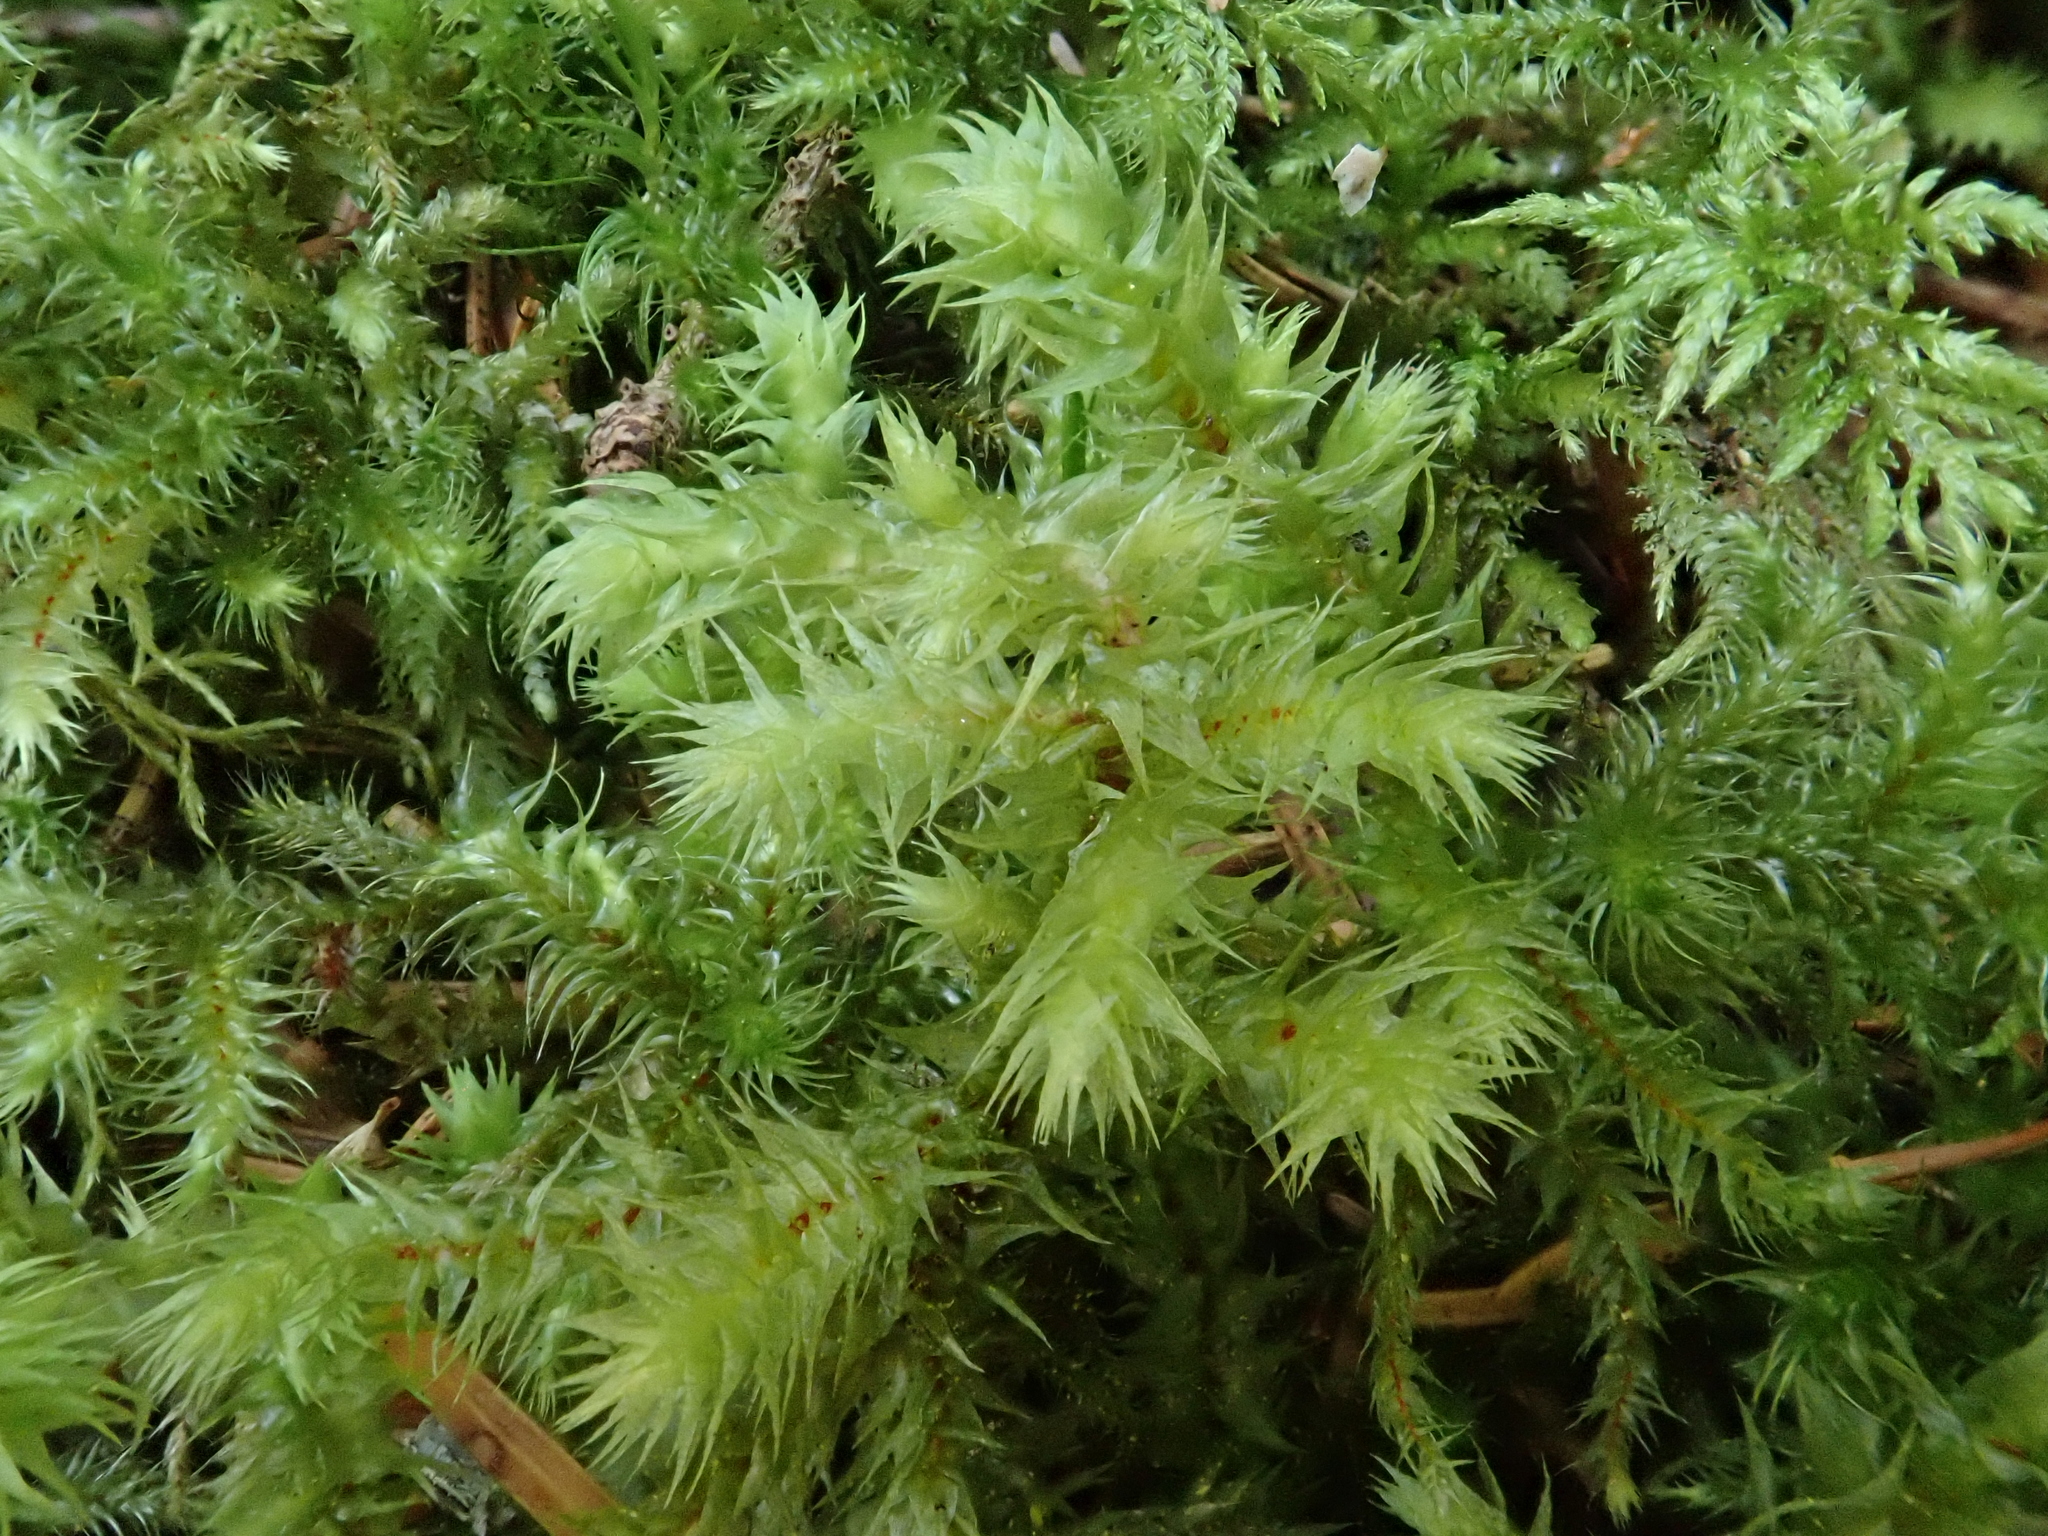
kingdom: Plantae
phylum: Bryophyta
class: Bryopsida
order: Hypnales
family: Hylocomiaceae
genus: Hylocomiadelphus
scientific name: Hylocomiadelphus triquetrus
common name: Rough goose neck moss
